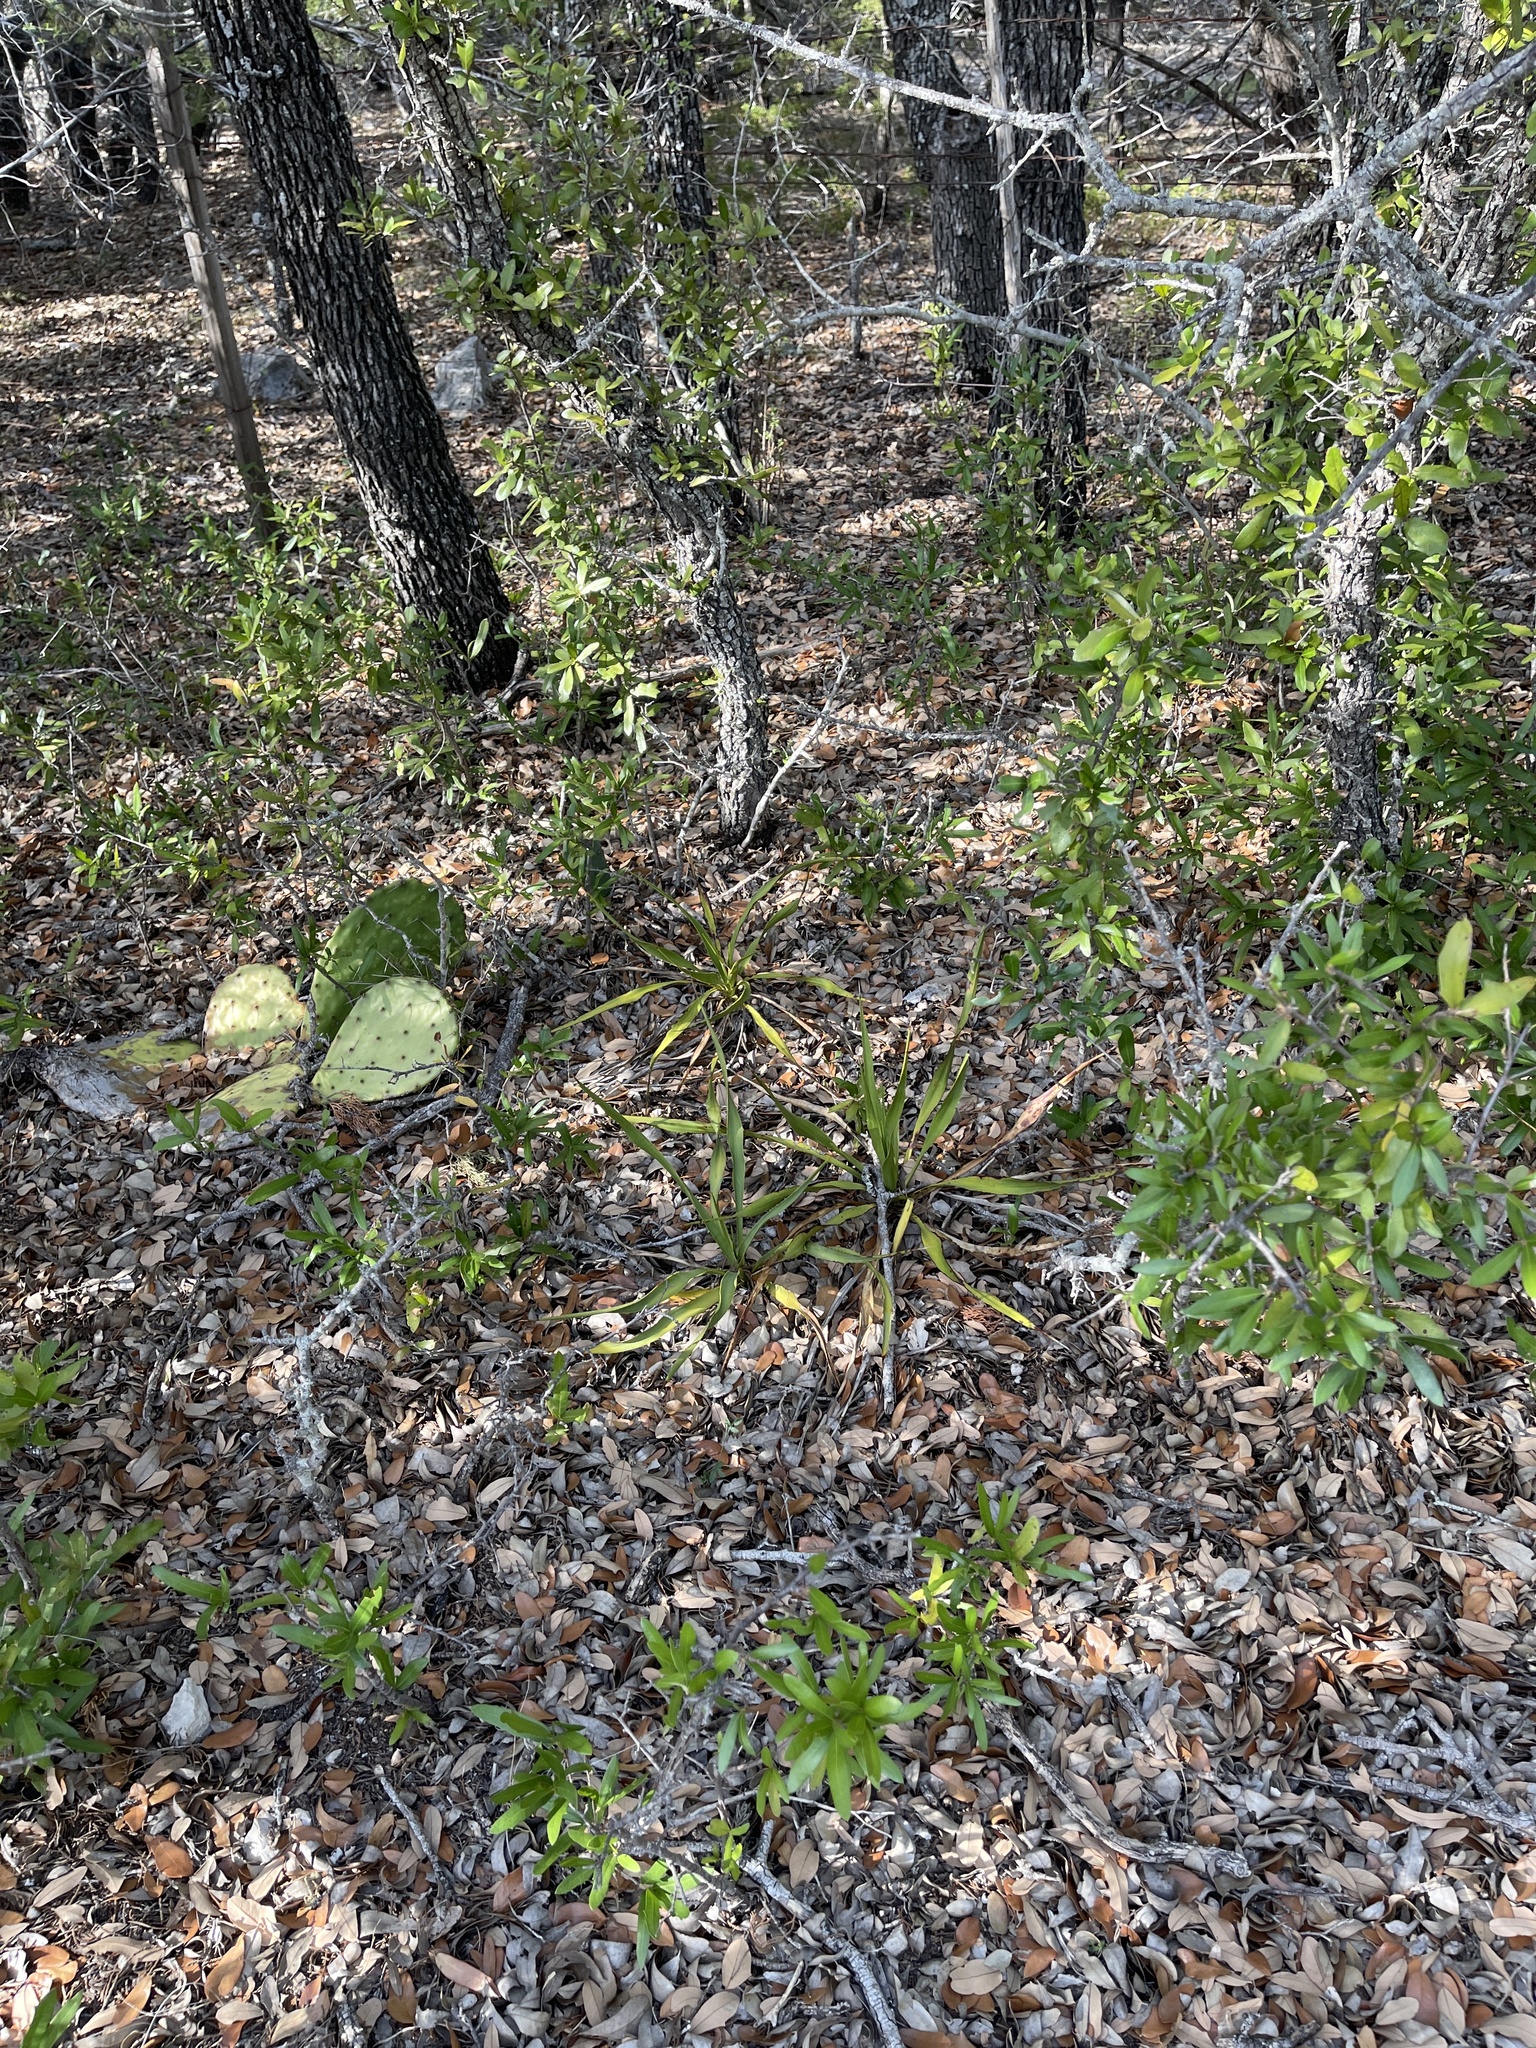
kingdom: Plantae
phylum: Tracheophyta
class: Liliopsida
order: Asparagales
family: Asparagaceae
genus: Yucca
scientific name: Yucca rupicola
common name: Twisted-leaf spanish-dagger
